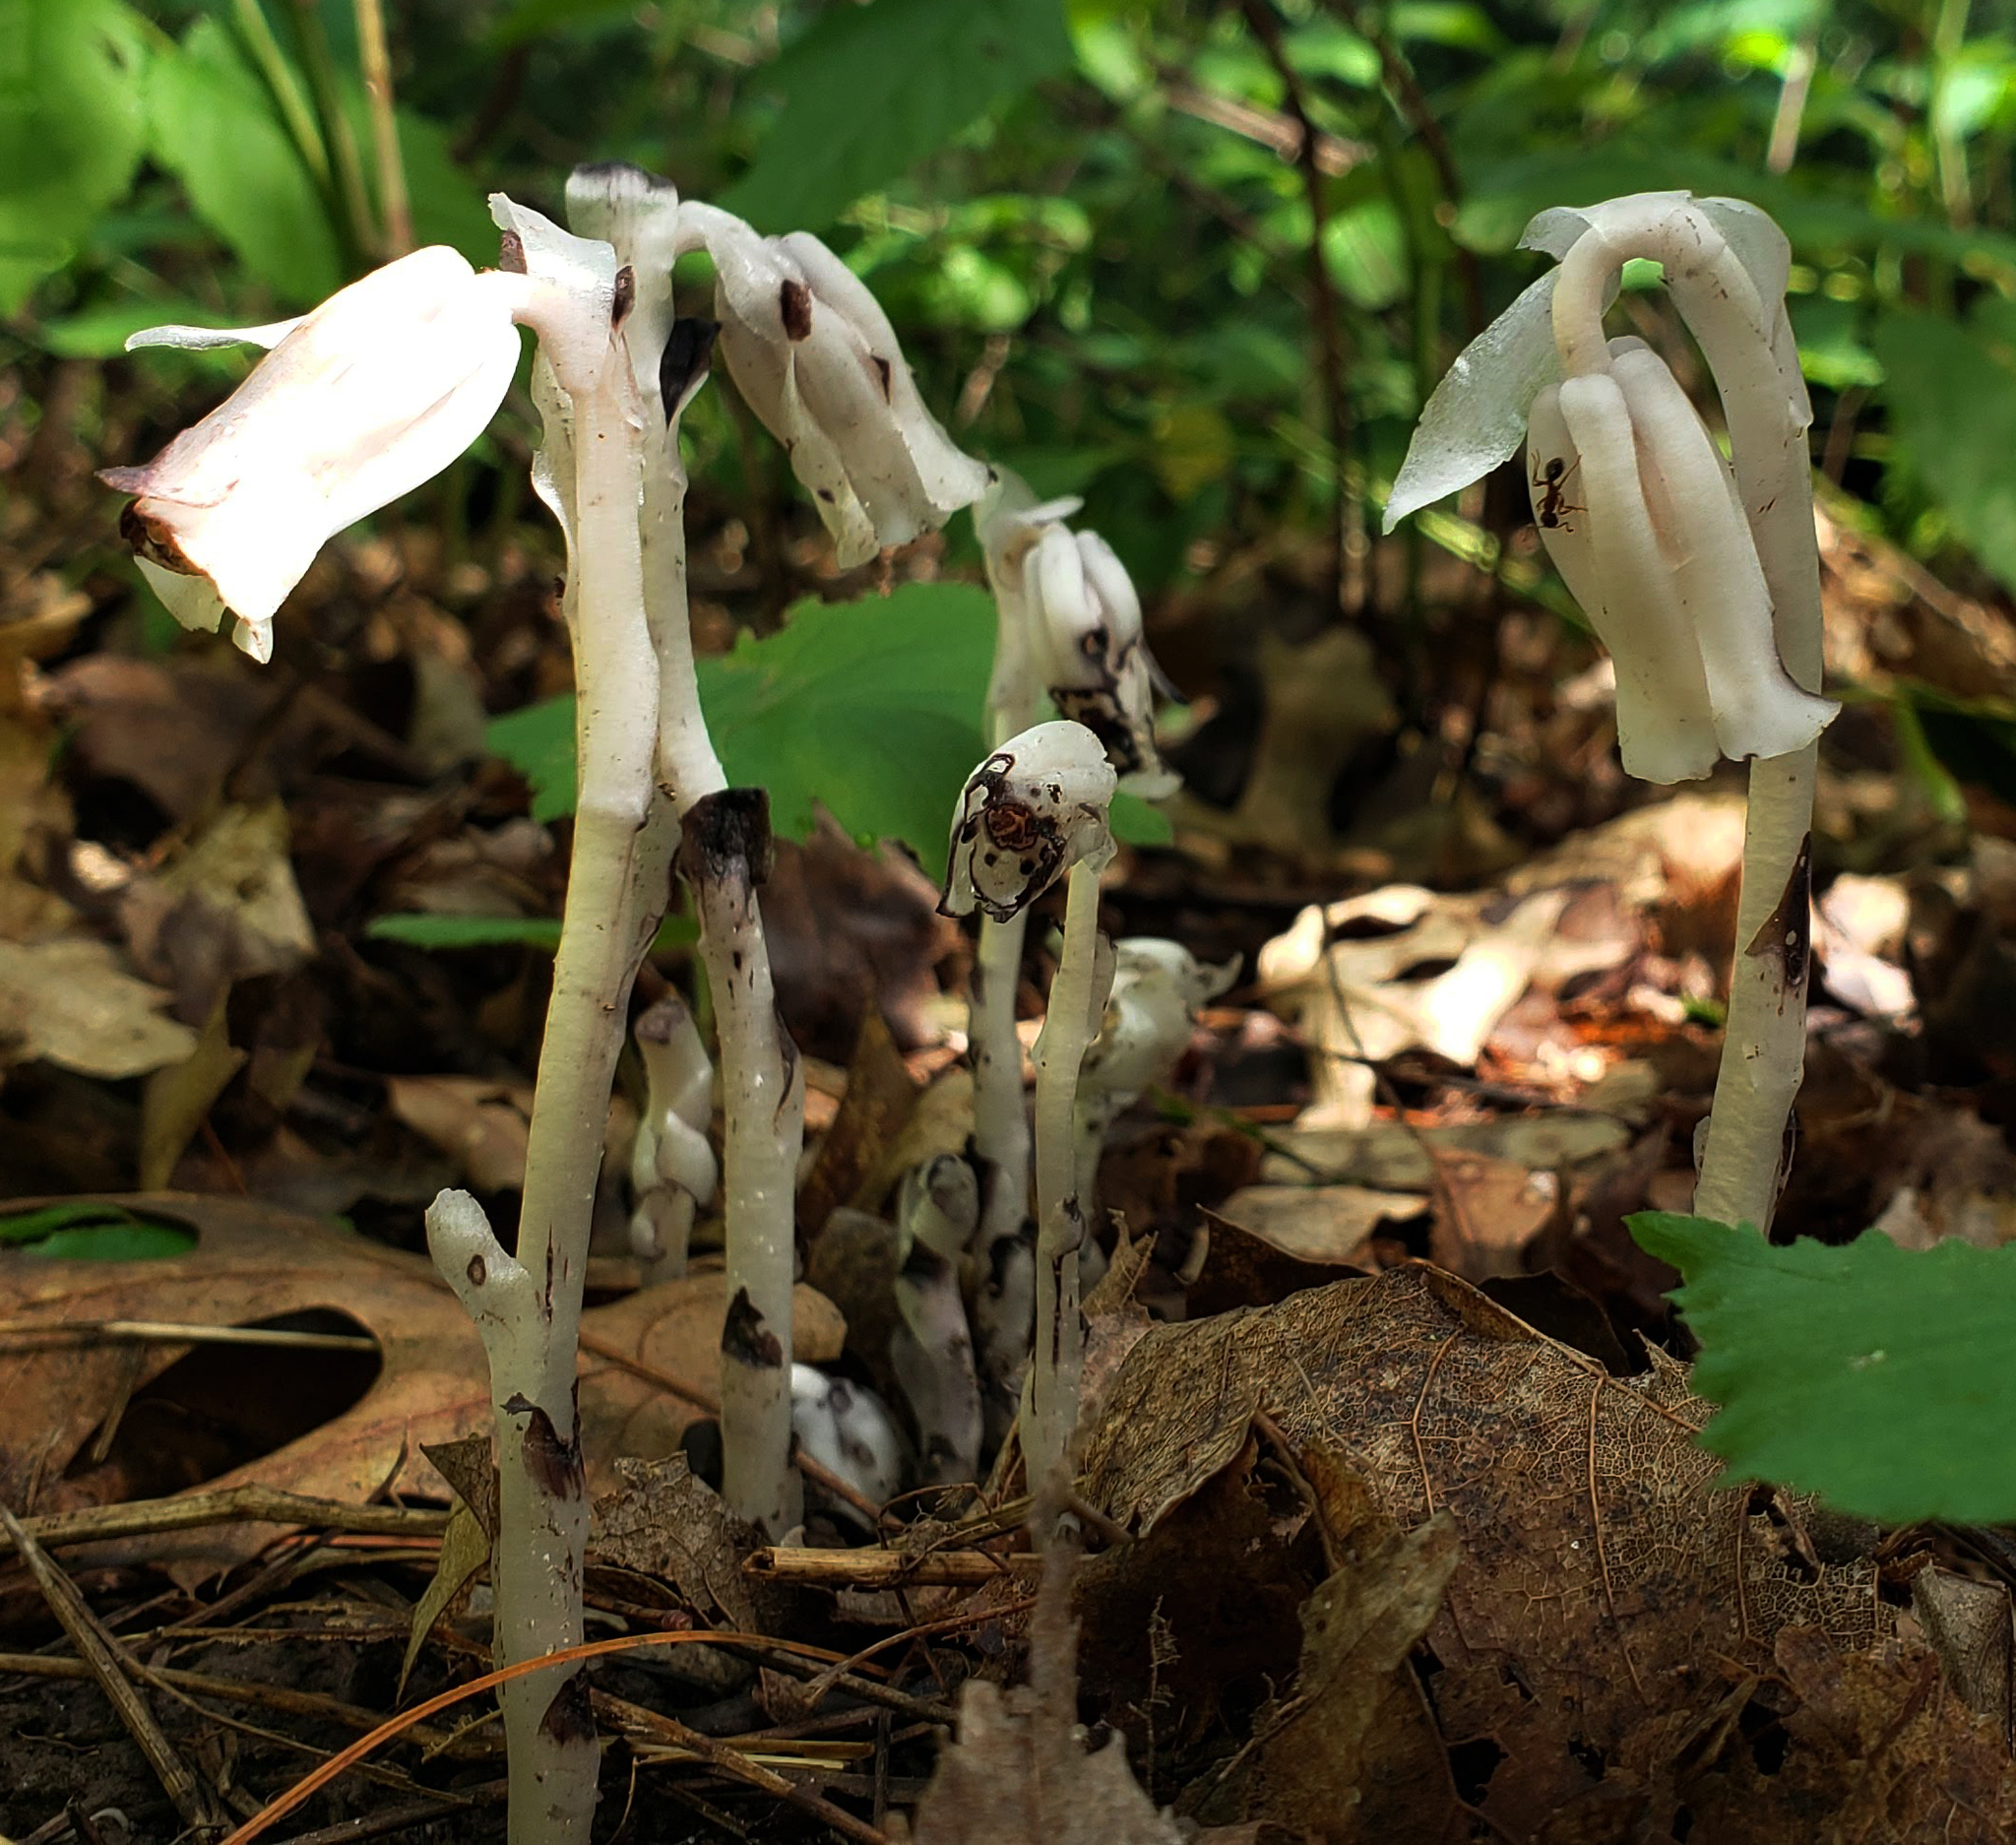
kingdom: Plantae
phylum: Tracheophyta
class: Magnoliopsida
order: Ericales
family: Ericaceae
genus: Monotropa
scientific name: Monotropa uniflora
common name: Convulsion root
